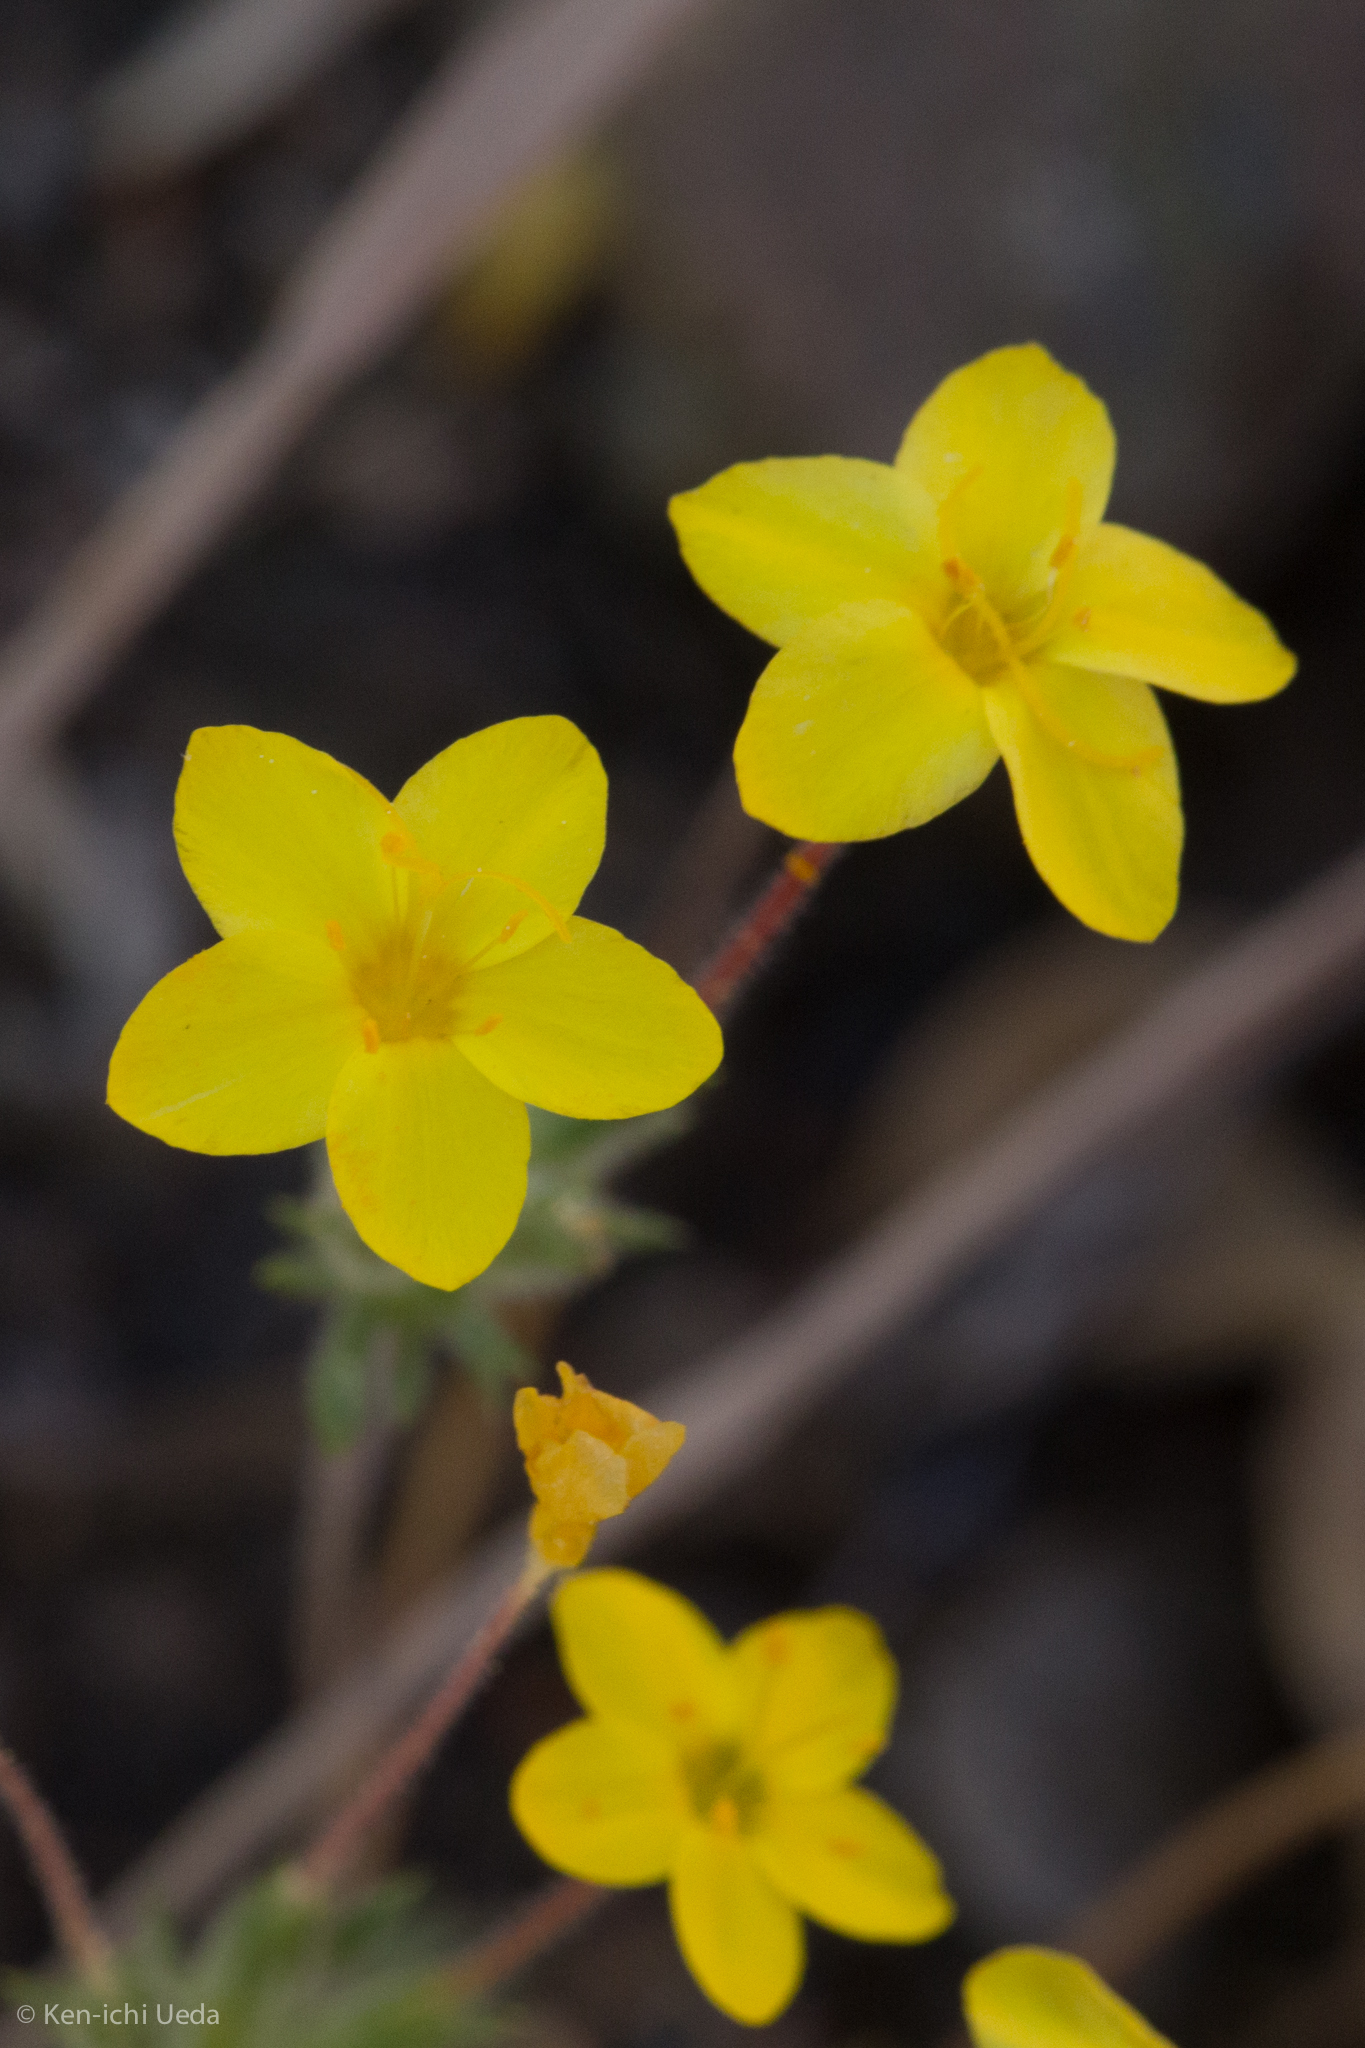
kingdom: Plantae
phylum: Tracheophyta
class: Magnoliopsida
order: Ericales
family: Polemoniaceae
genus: Leptosiphon
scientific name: Leptosiphon parviflorus
